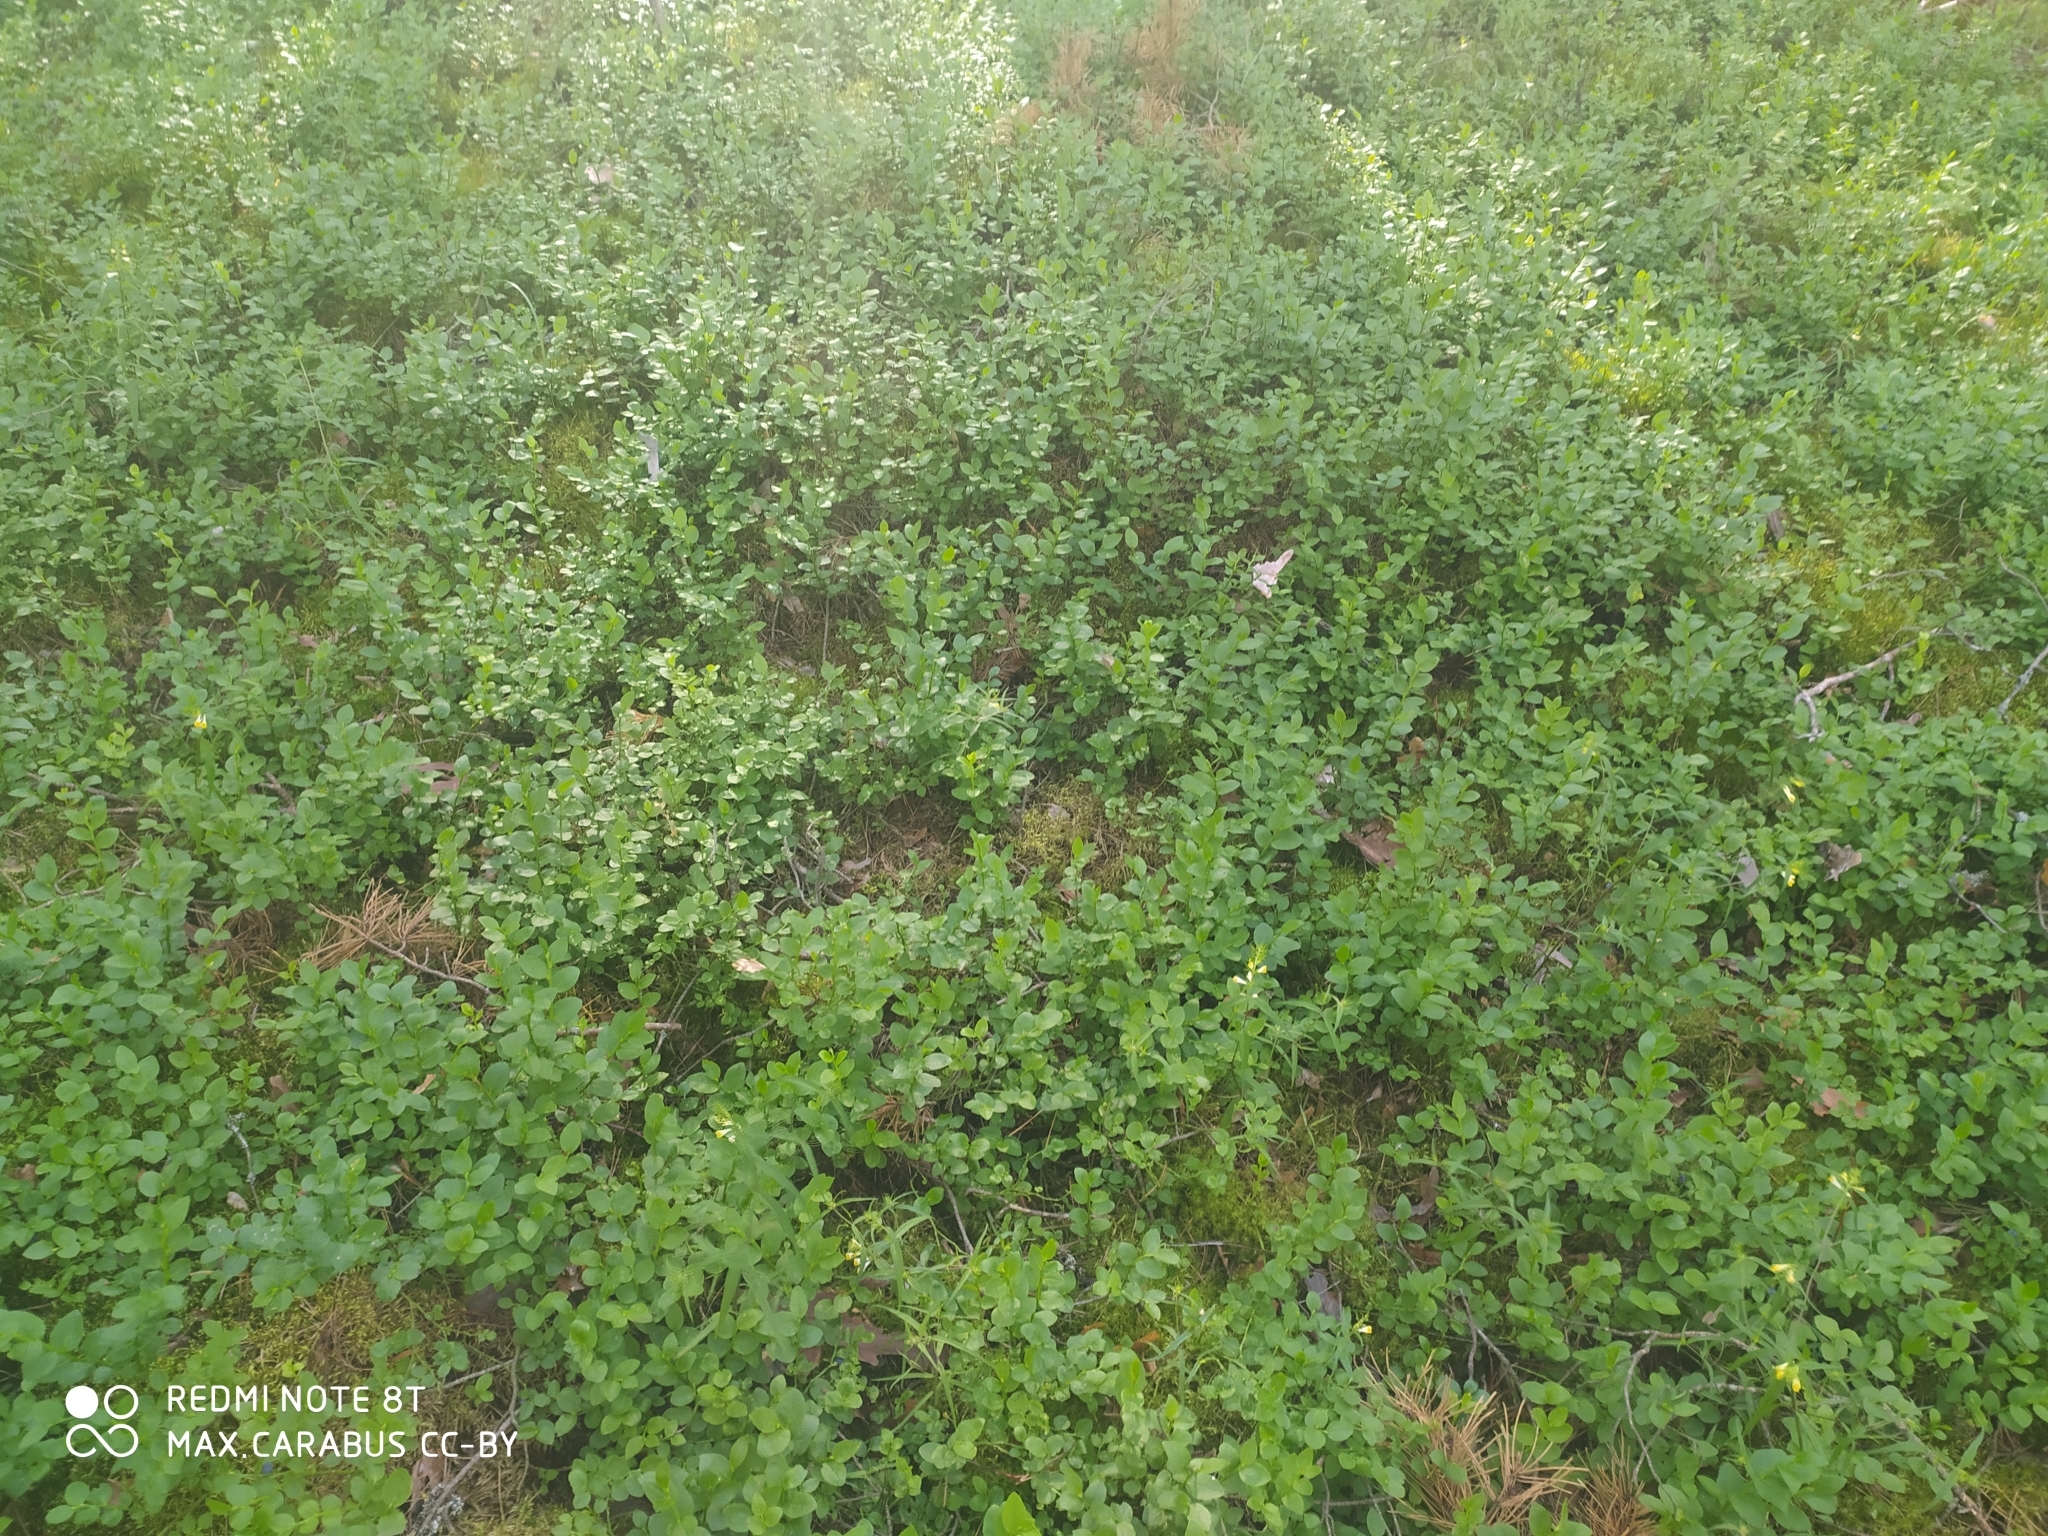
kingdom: Plantae
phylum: Tracheophyta
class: Magnoliopsida
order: Ericales
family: Ericaceae
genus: Vaccinium
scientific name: Vaccinium myrtillus
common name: Bilberry
